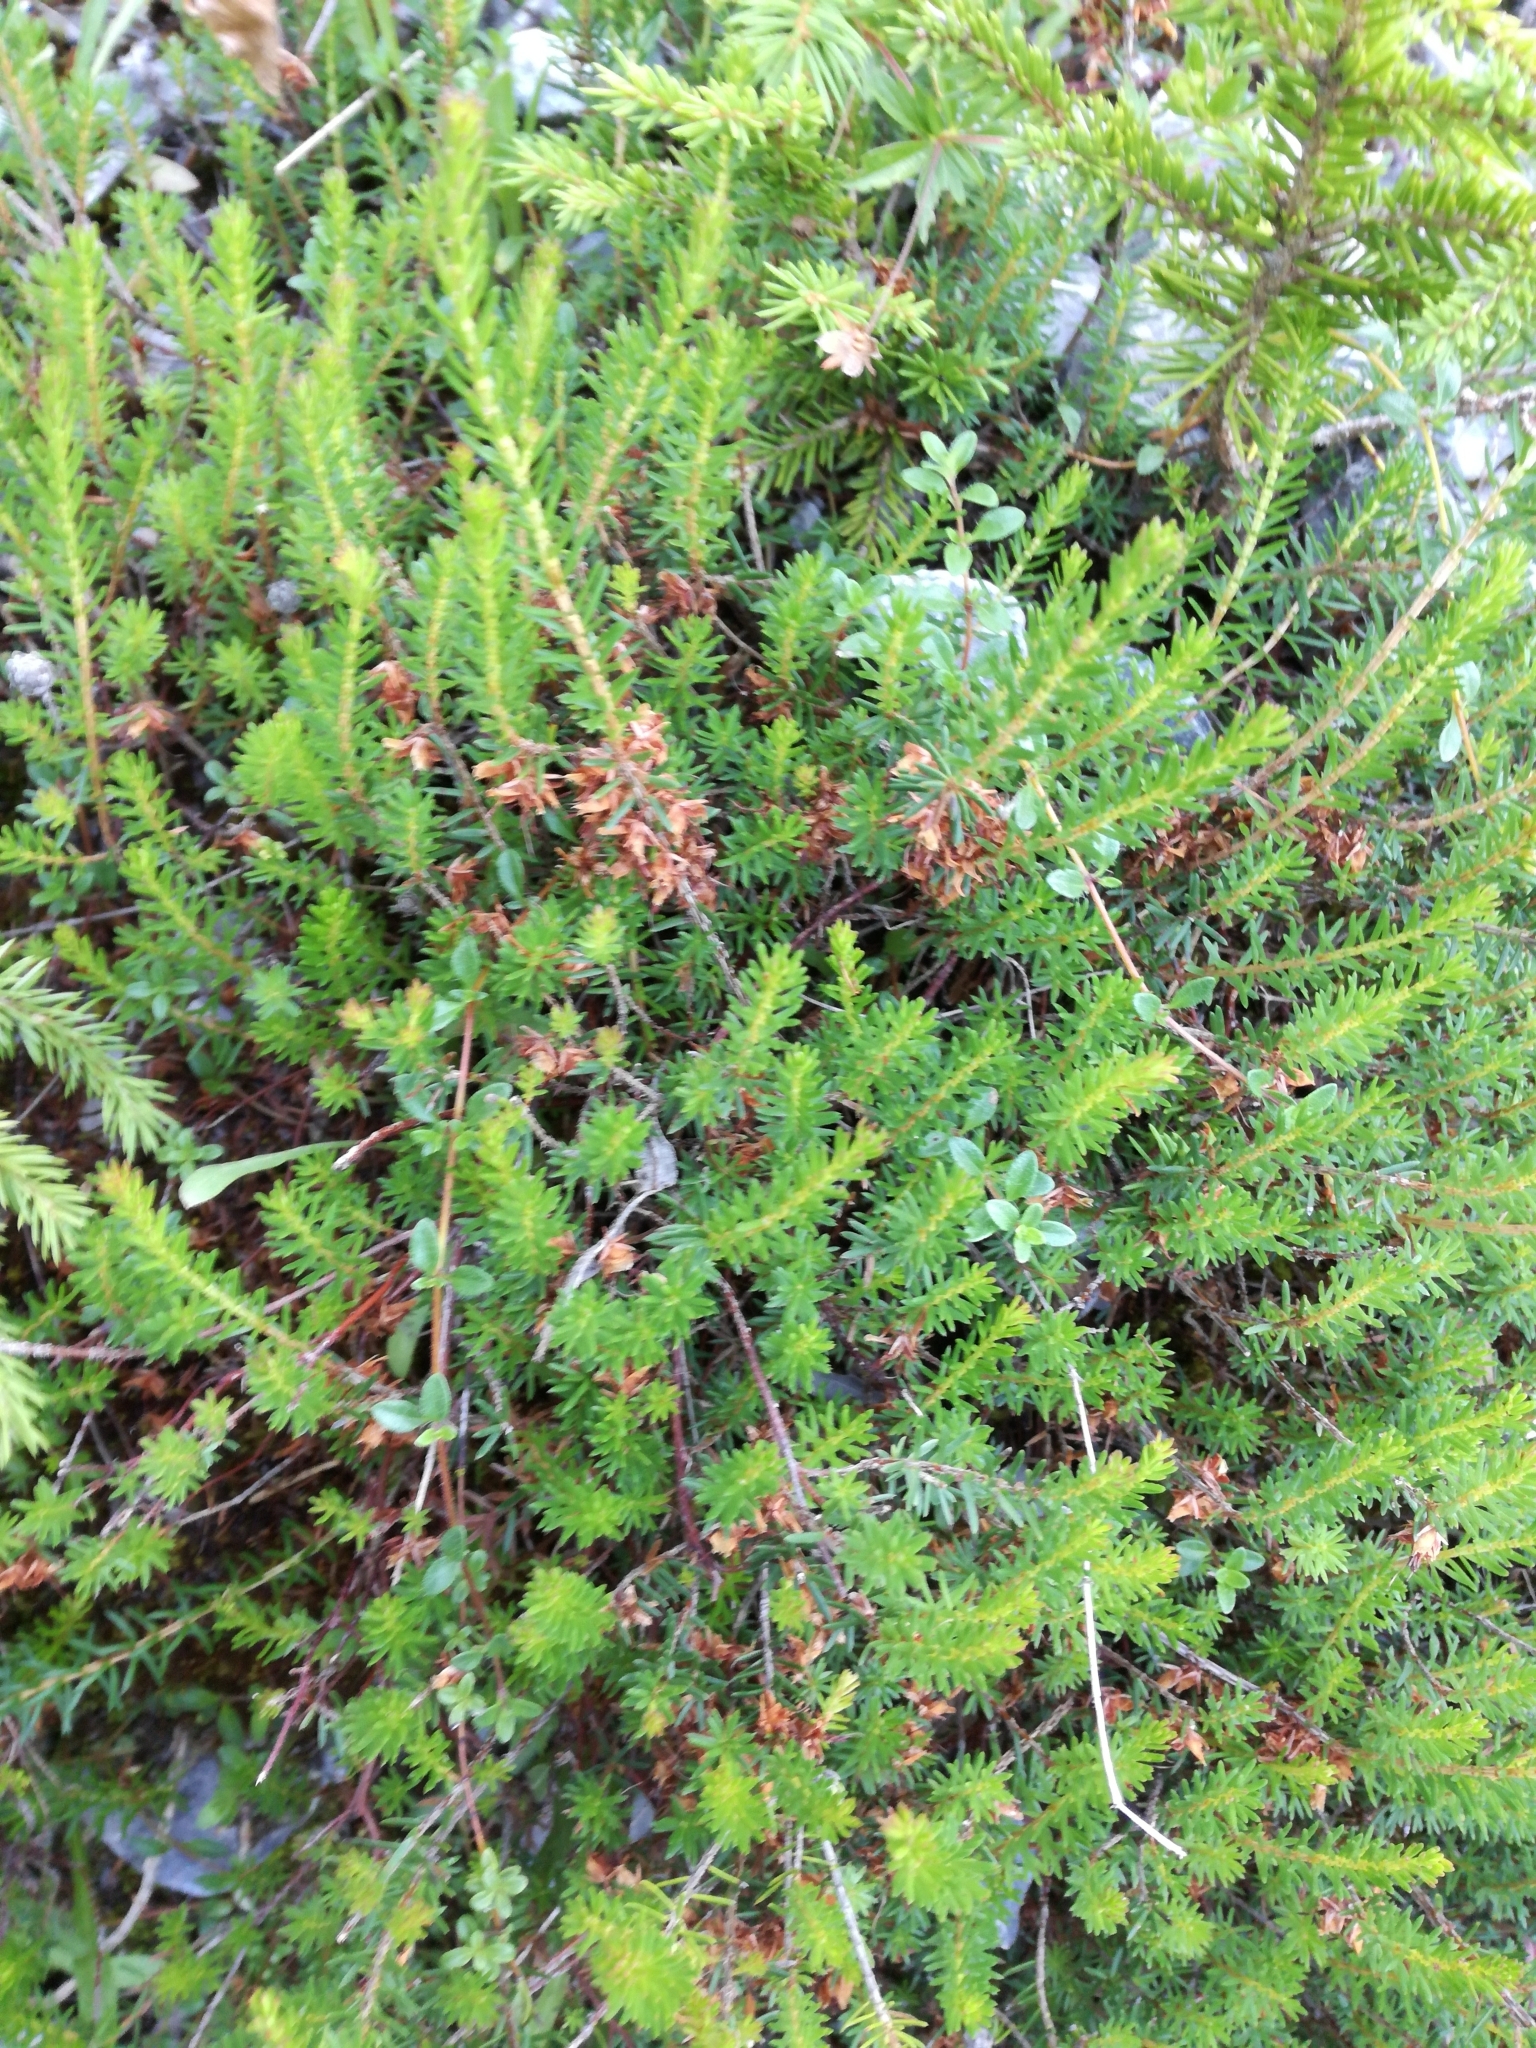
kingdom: Plantae
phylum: Tracheophyta
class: Magnoliopsida
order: Ericales
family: Ericaceae
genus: Erica
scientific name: Erica carnea
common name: Winter heath
